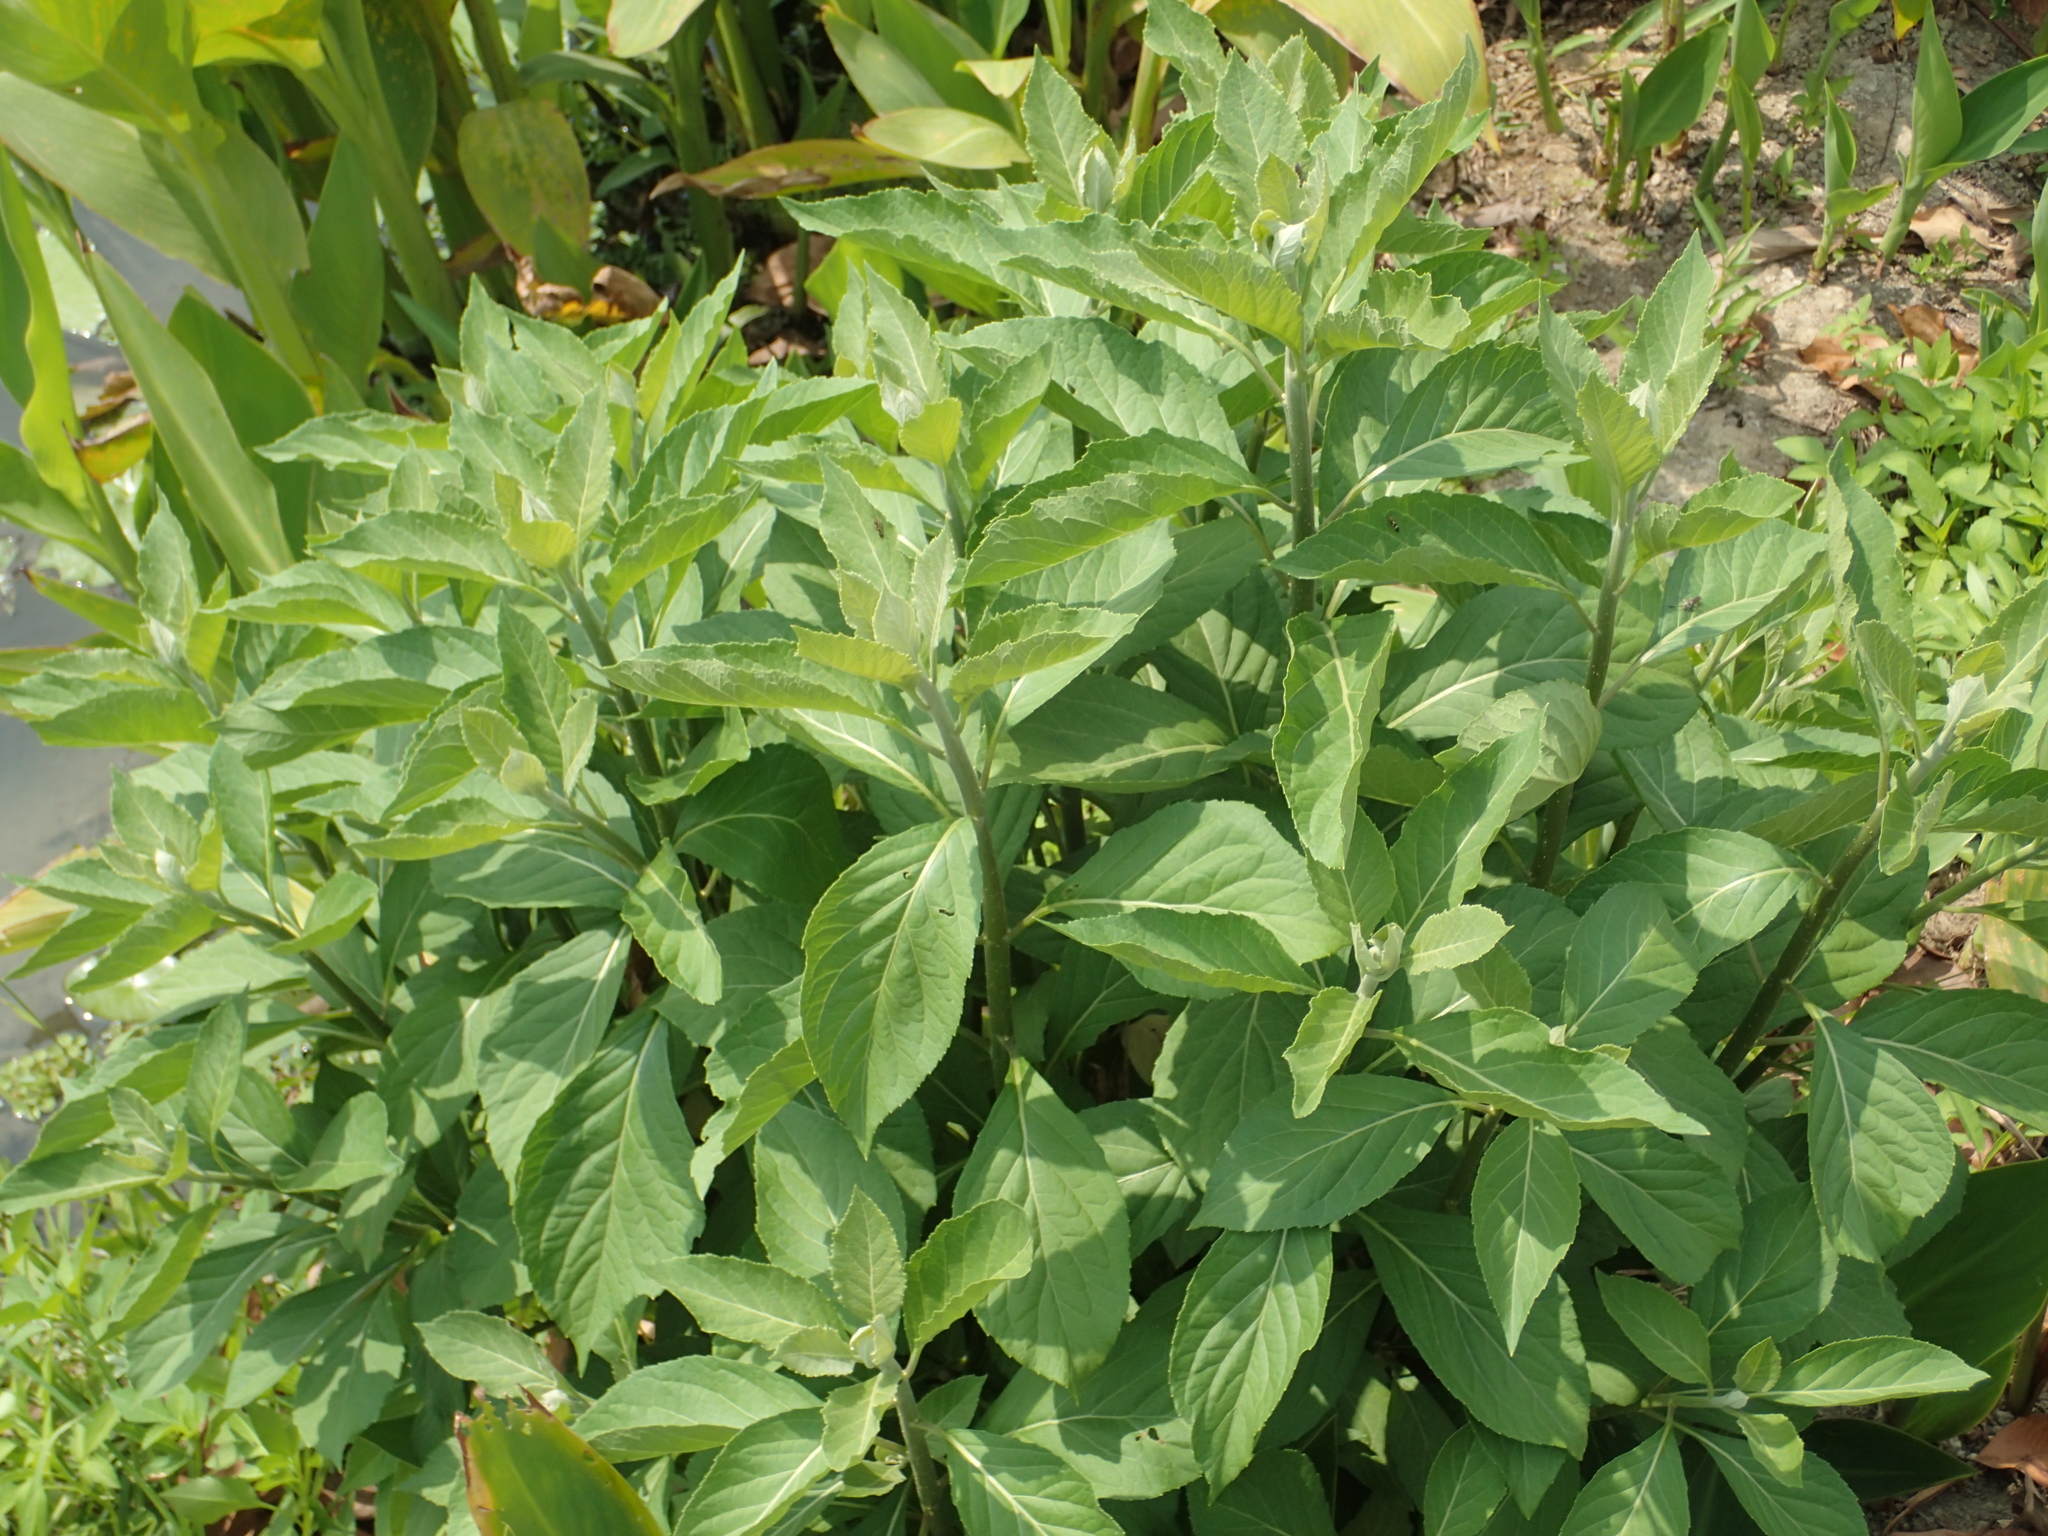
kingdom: Plantae
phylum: Tracheophyta
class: Magnoliopsida
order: Asterales
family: Asteraceae
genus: Pluchea
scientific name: Pluchea carolinensis
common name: Marsh fleabane
